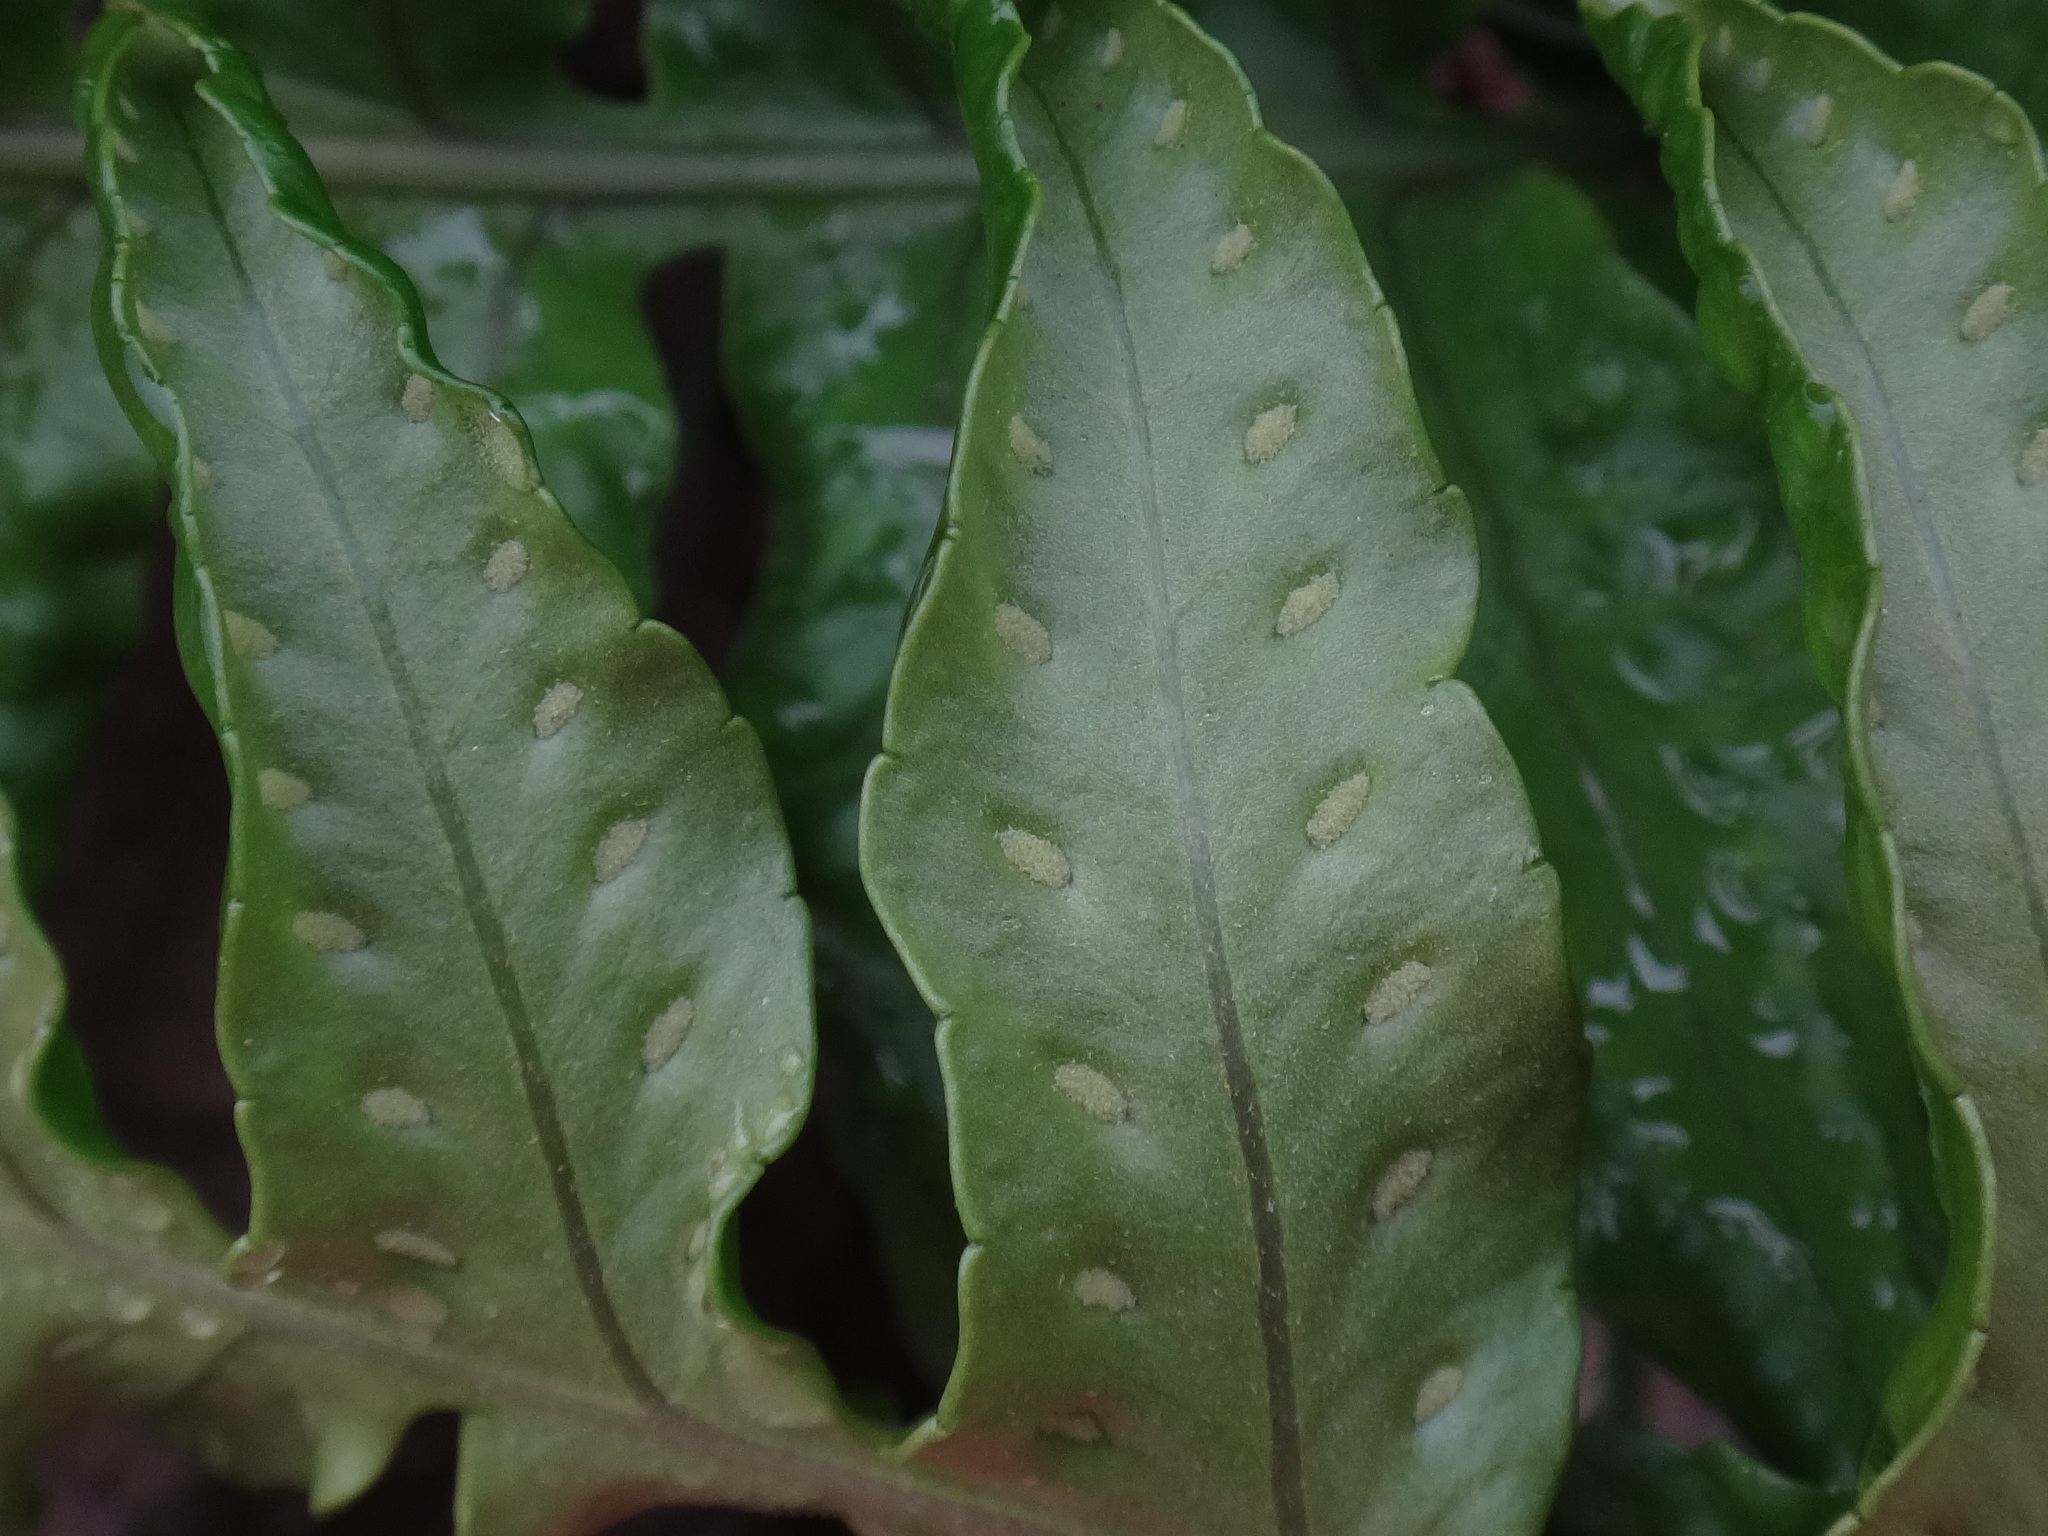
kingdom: Plantae
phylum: Tracheophyta
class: Polypodiopsida
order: Polypodiales
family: Polypodiaceae
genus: Polypodium
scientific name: Polypodium macaronesicum
